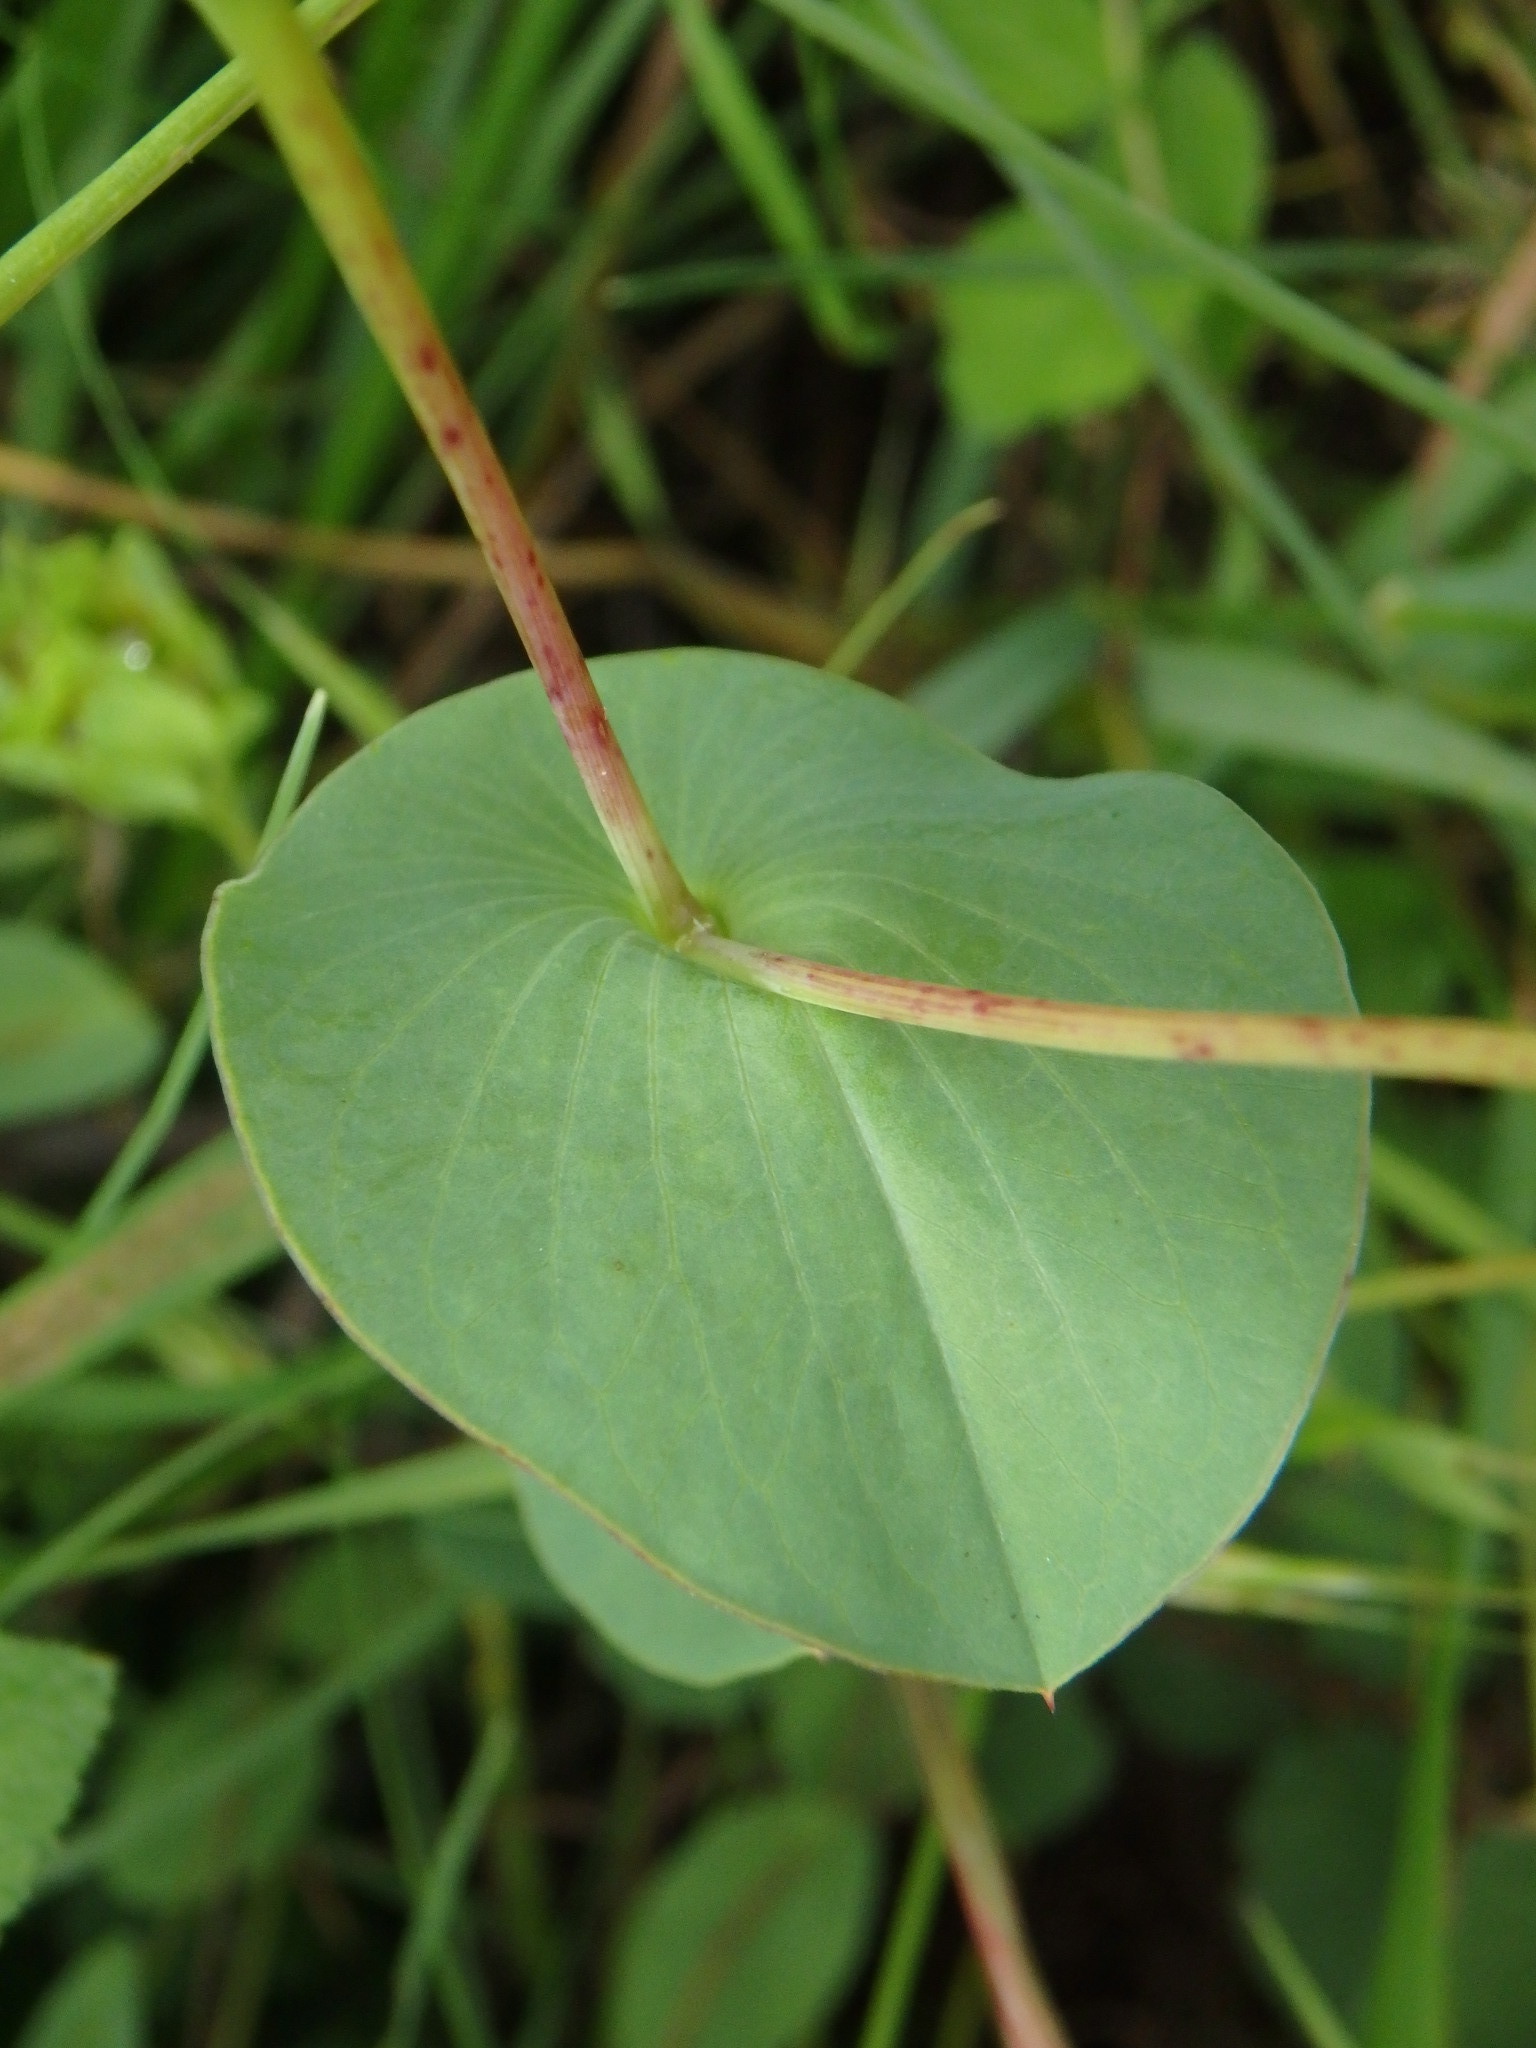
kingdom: Plantae
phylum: Tracheophyta
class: Magnoliopsida
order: Apiales
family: Apiaceae
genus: Bupleurum
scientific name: Bupleurum rotundifolium
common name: Thorow-wax
